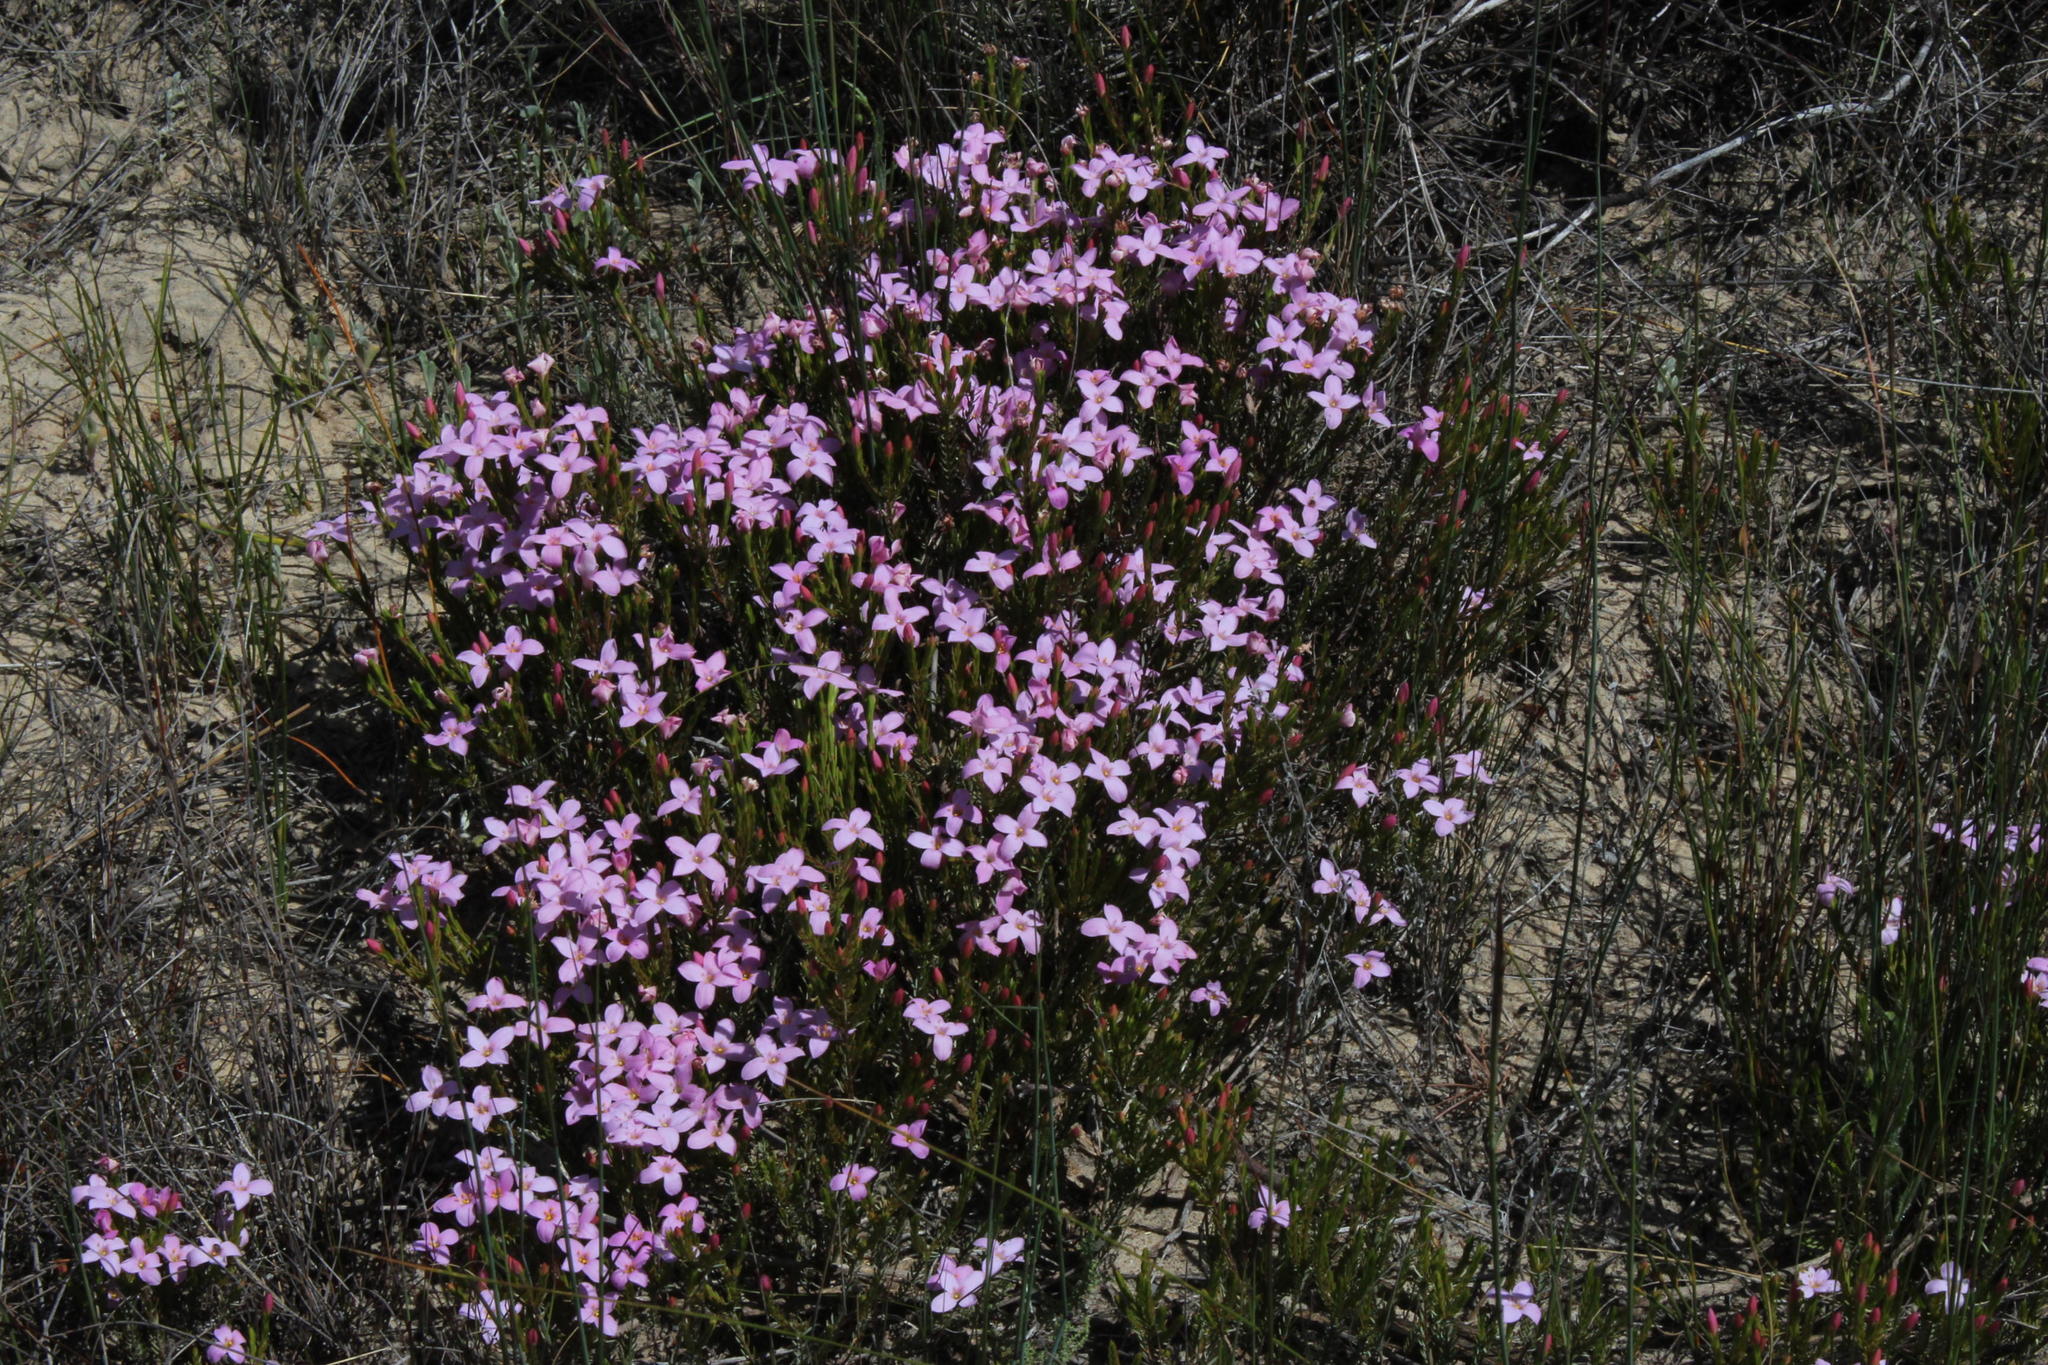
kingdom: Plantae
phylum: Tracheophyta
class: Magnoliopsida
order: Malvales
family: Thymelaeaceae
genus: Lachnaea
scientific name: Lachnaea grandiflora
